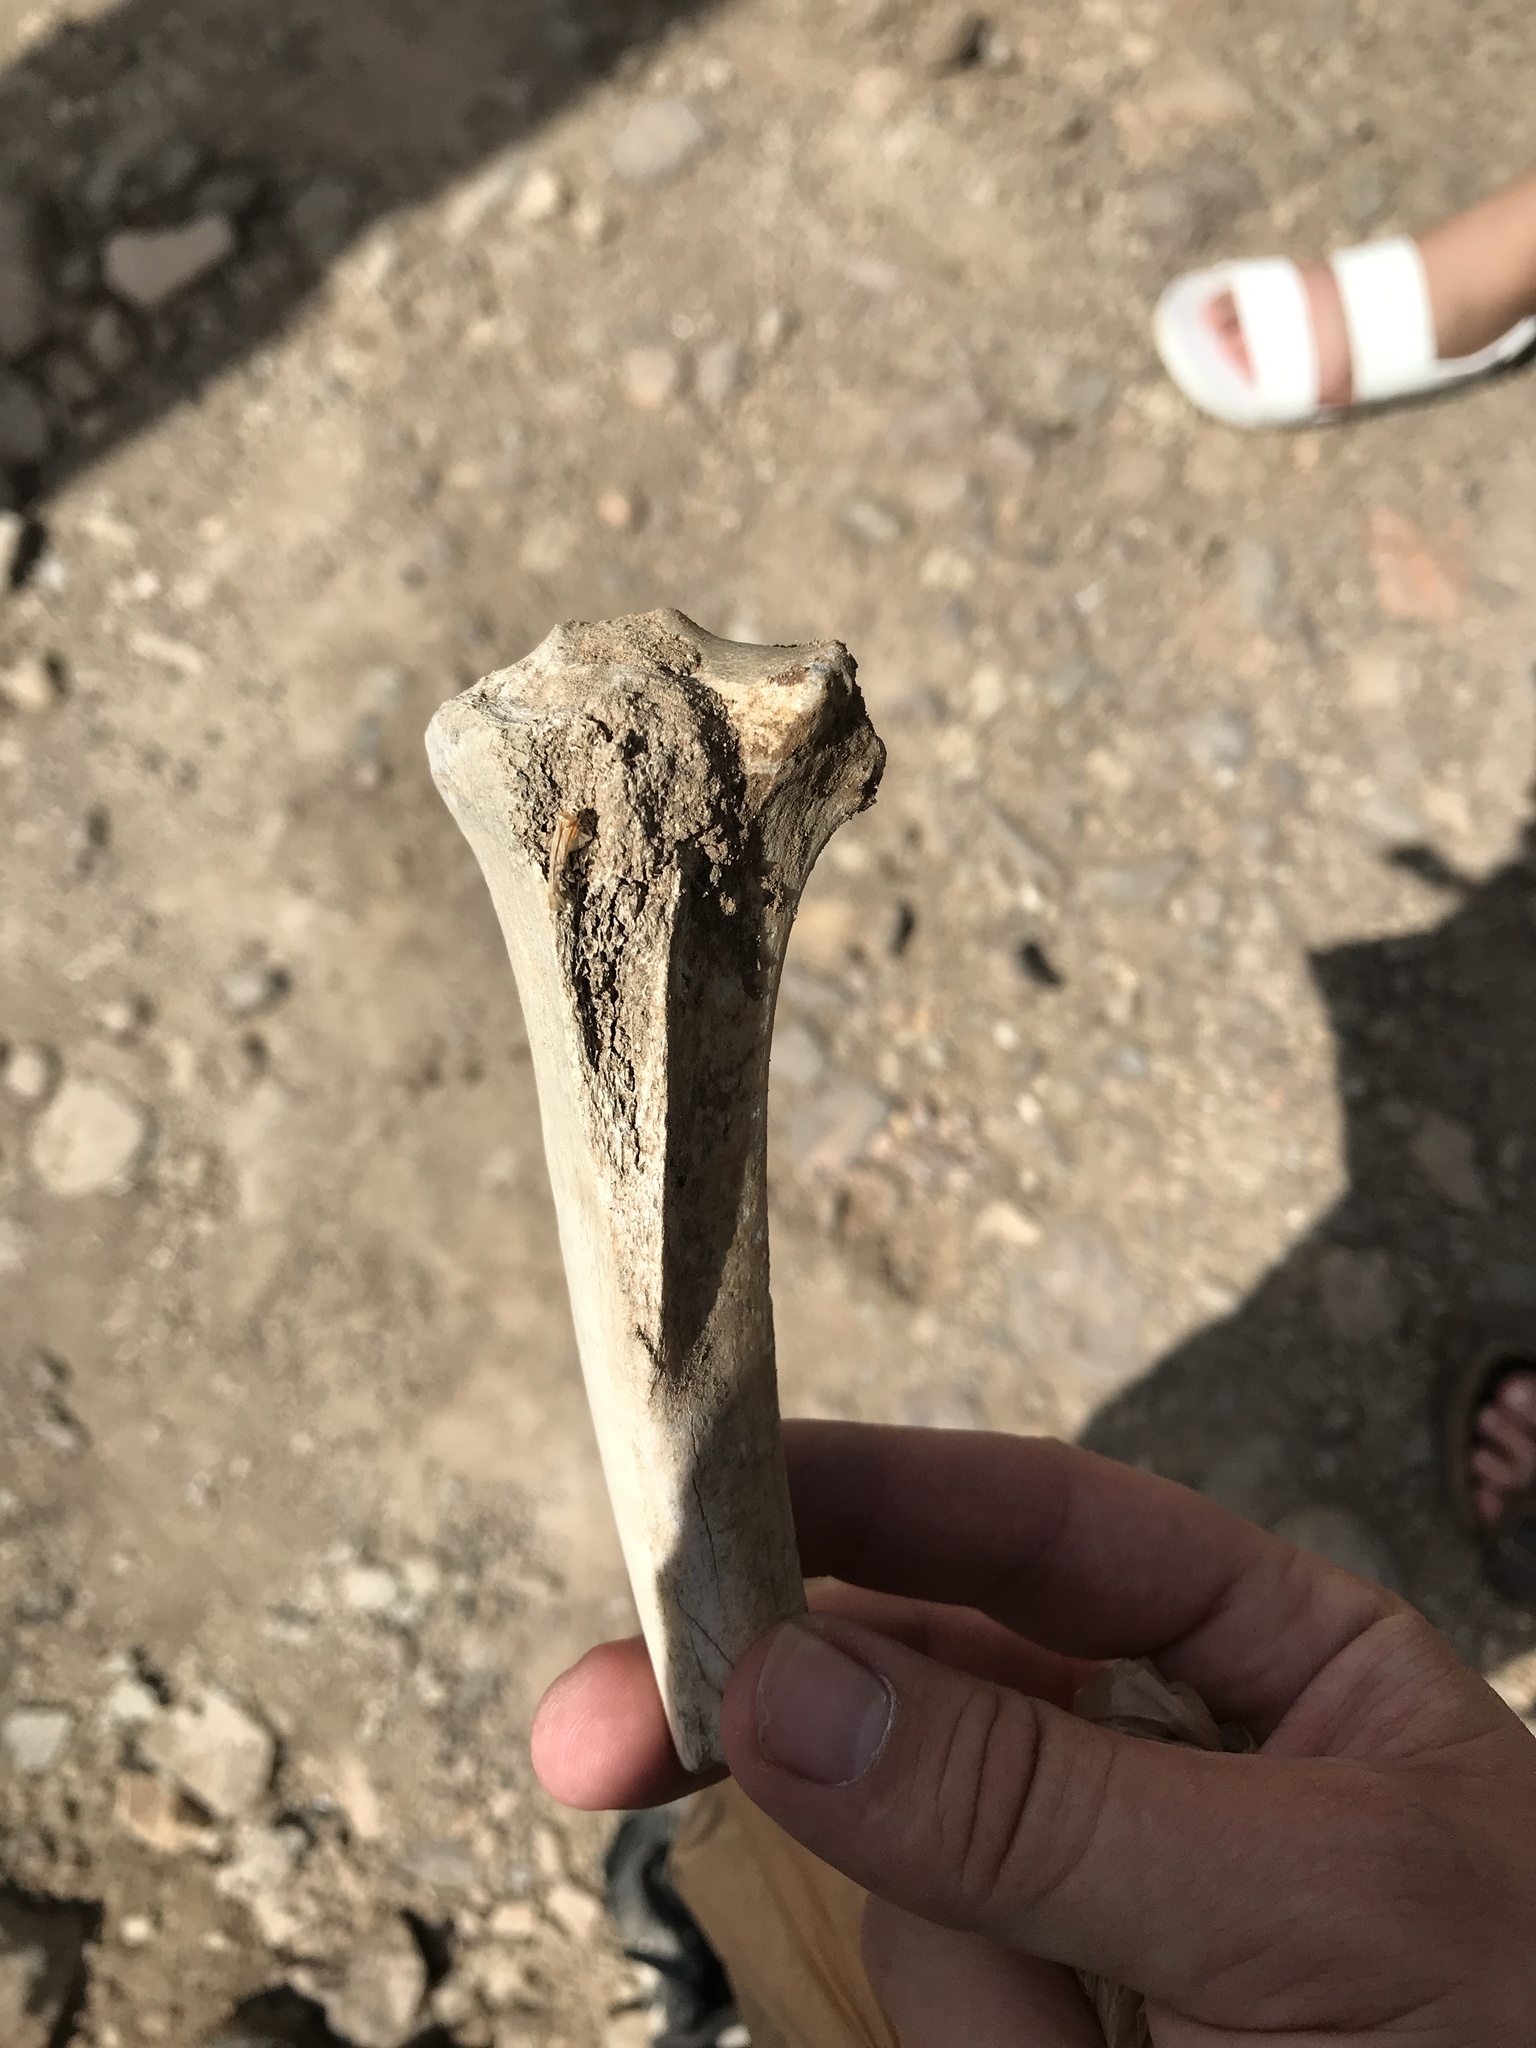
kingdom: Animalia
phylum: Chordata
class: Mammalia
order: Carnivora
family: Canidae
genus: Canis
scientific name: Canis lupus
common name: Gray wolf
